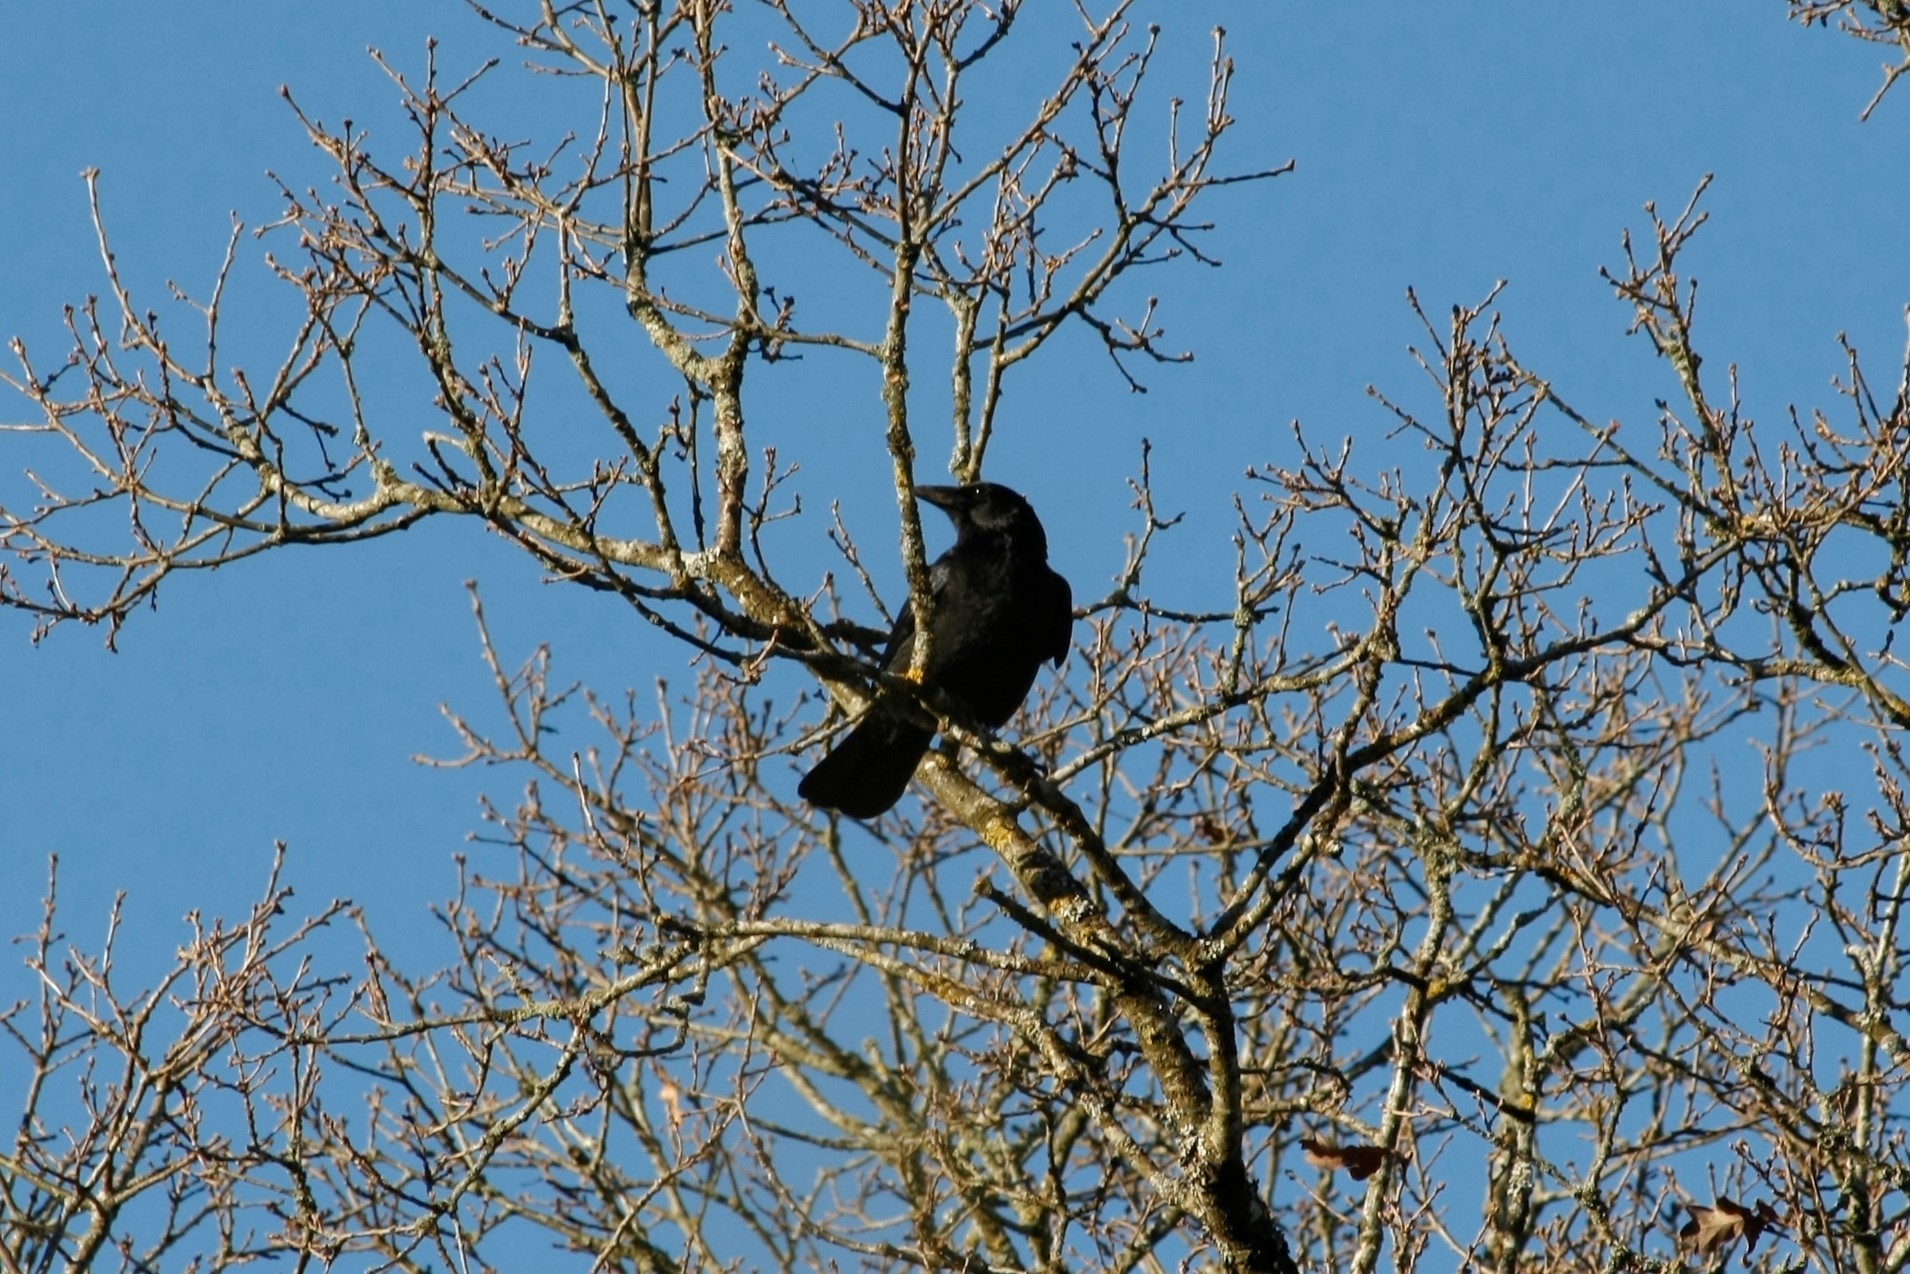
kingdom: Animalia
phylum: Chordata
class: Aves
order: Passeriformes
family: Corvidae
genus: Corvus
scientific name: Corvus corone
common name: Carrion crow
